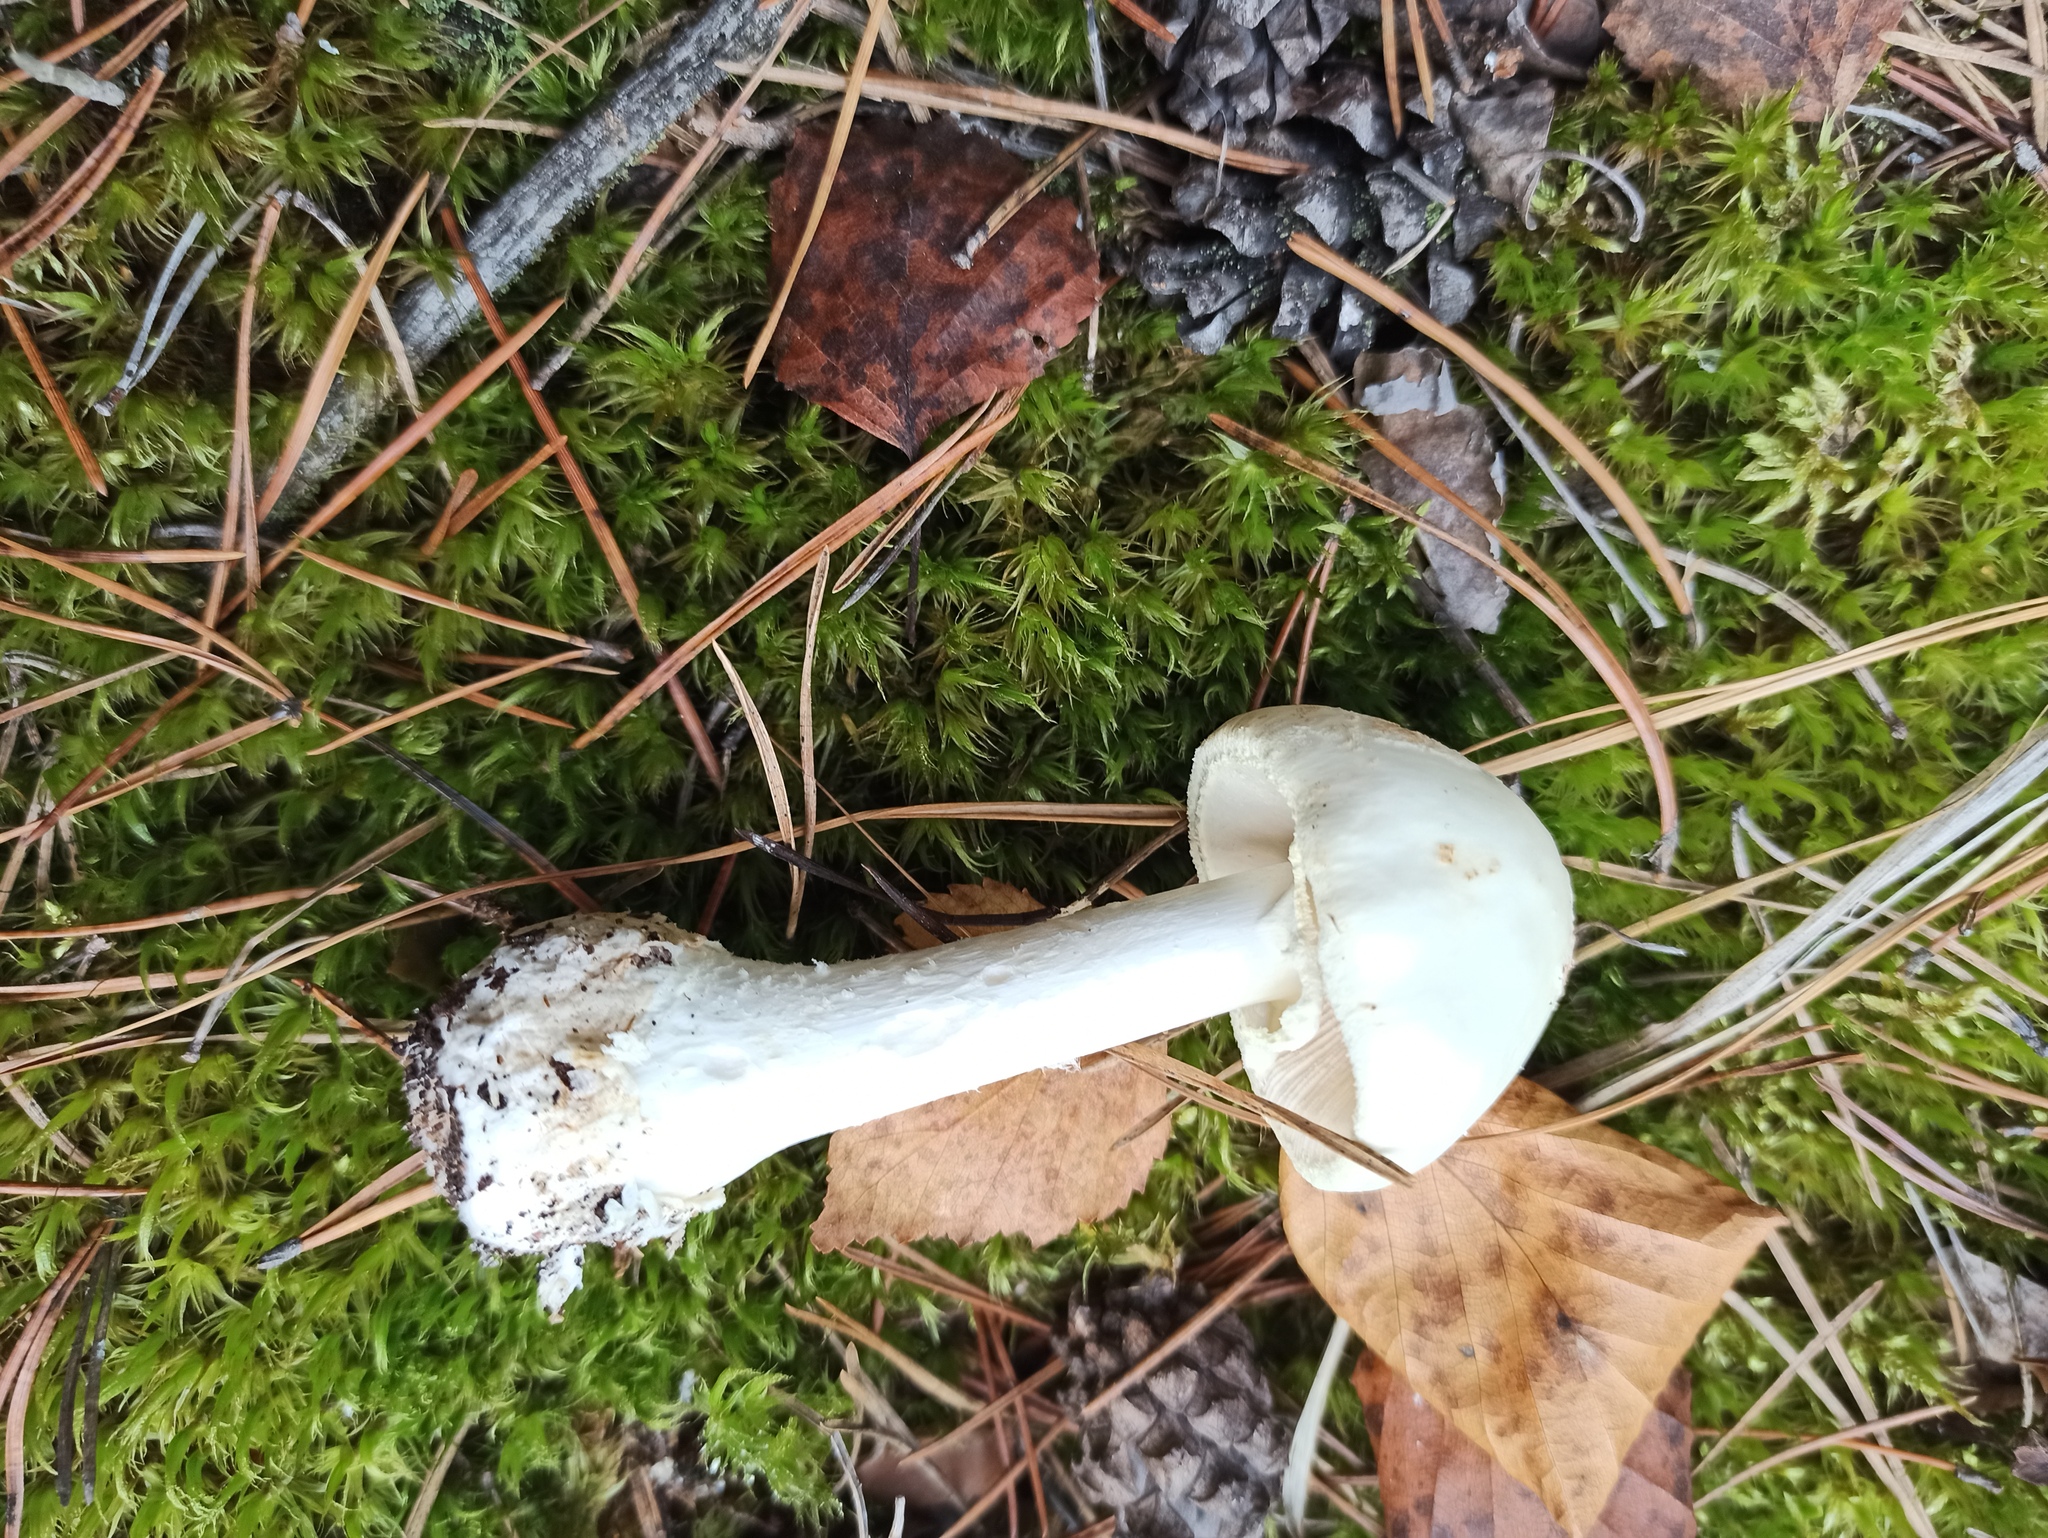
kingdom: Fungi
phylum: Basidiomycota
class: Agaricomycetes
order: Agaricales
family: Amanitaceae
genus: Amanita
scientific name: Amanita citrina
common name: False death-cap
